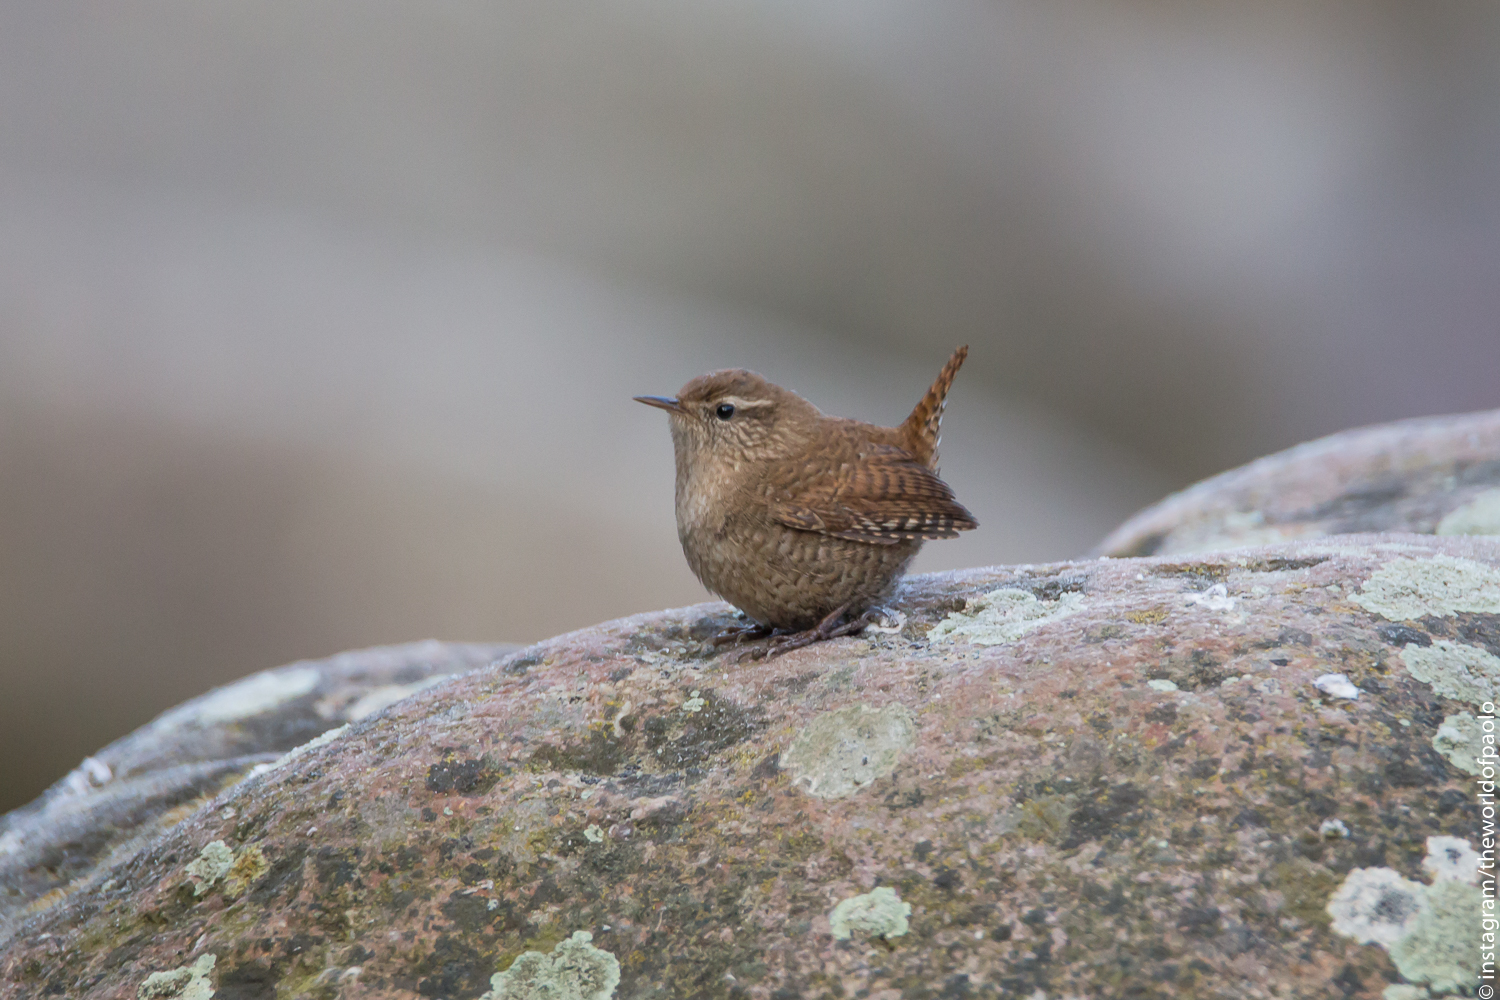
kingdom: Animalia
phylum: Chordata
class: Aves
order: Passeriformes
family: Troglodytidae
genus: Troglodytes
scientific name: Troglodytes troglodytes
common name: Eurasian wren
